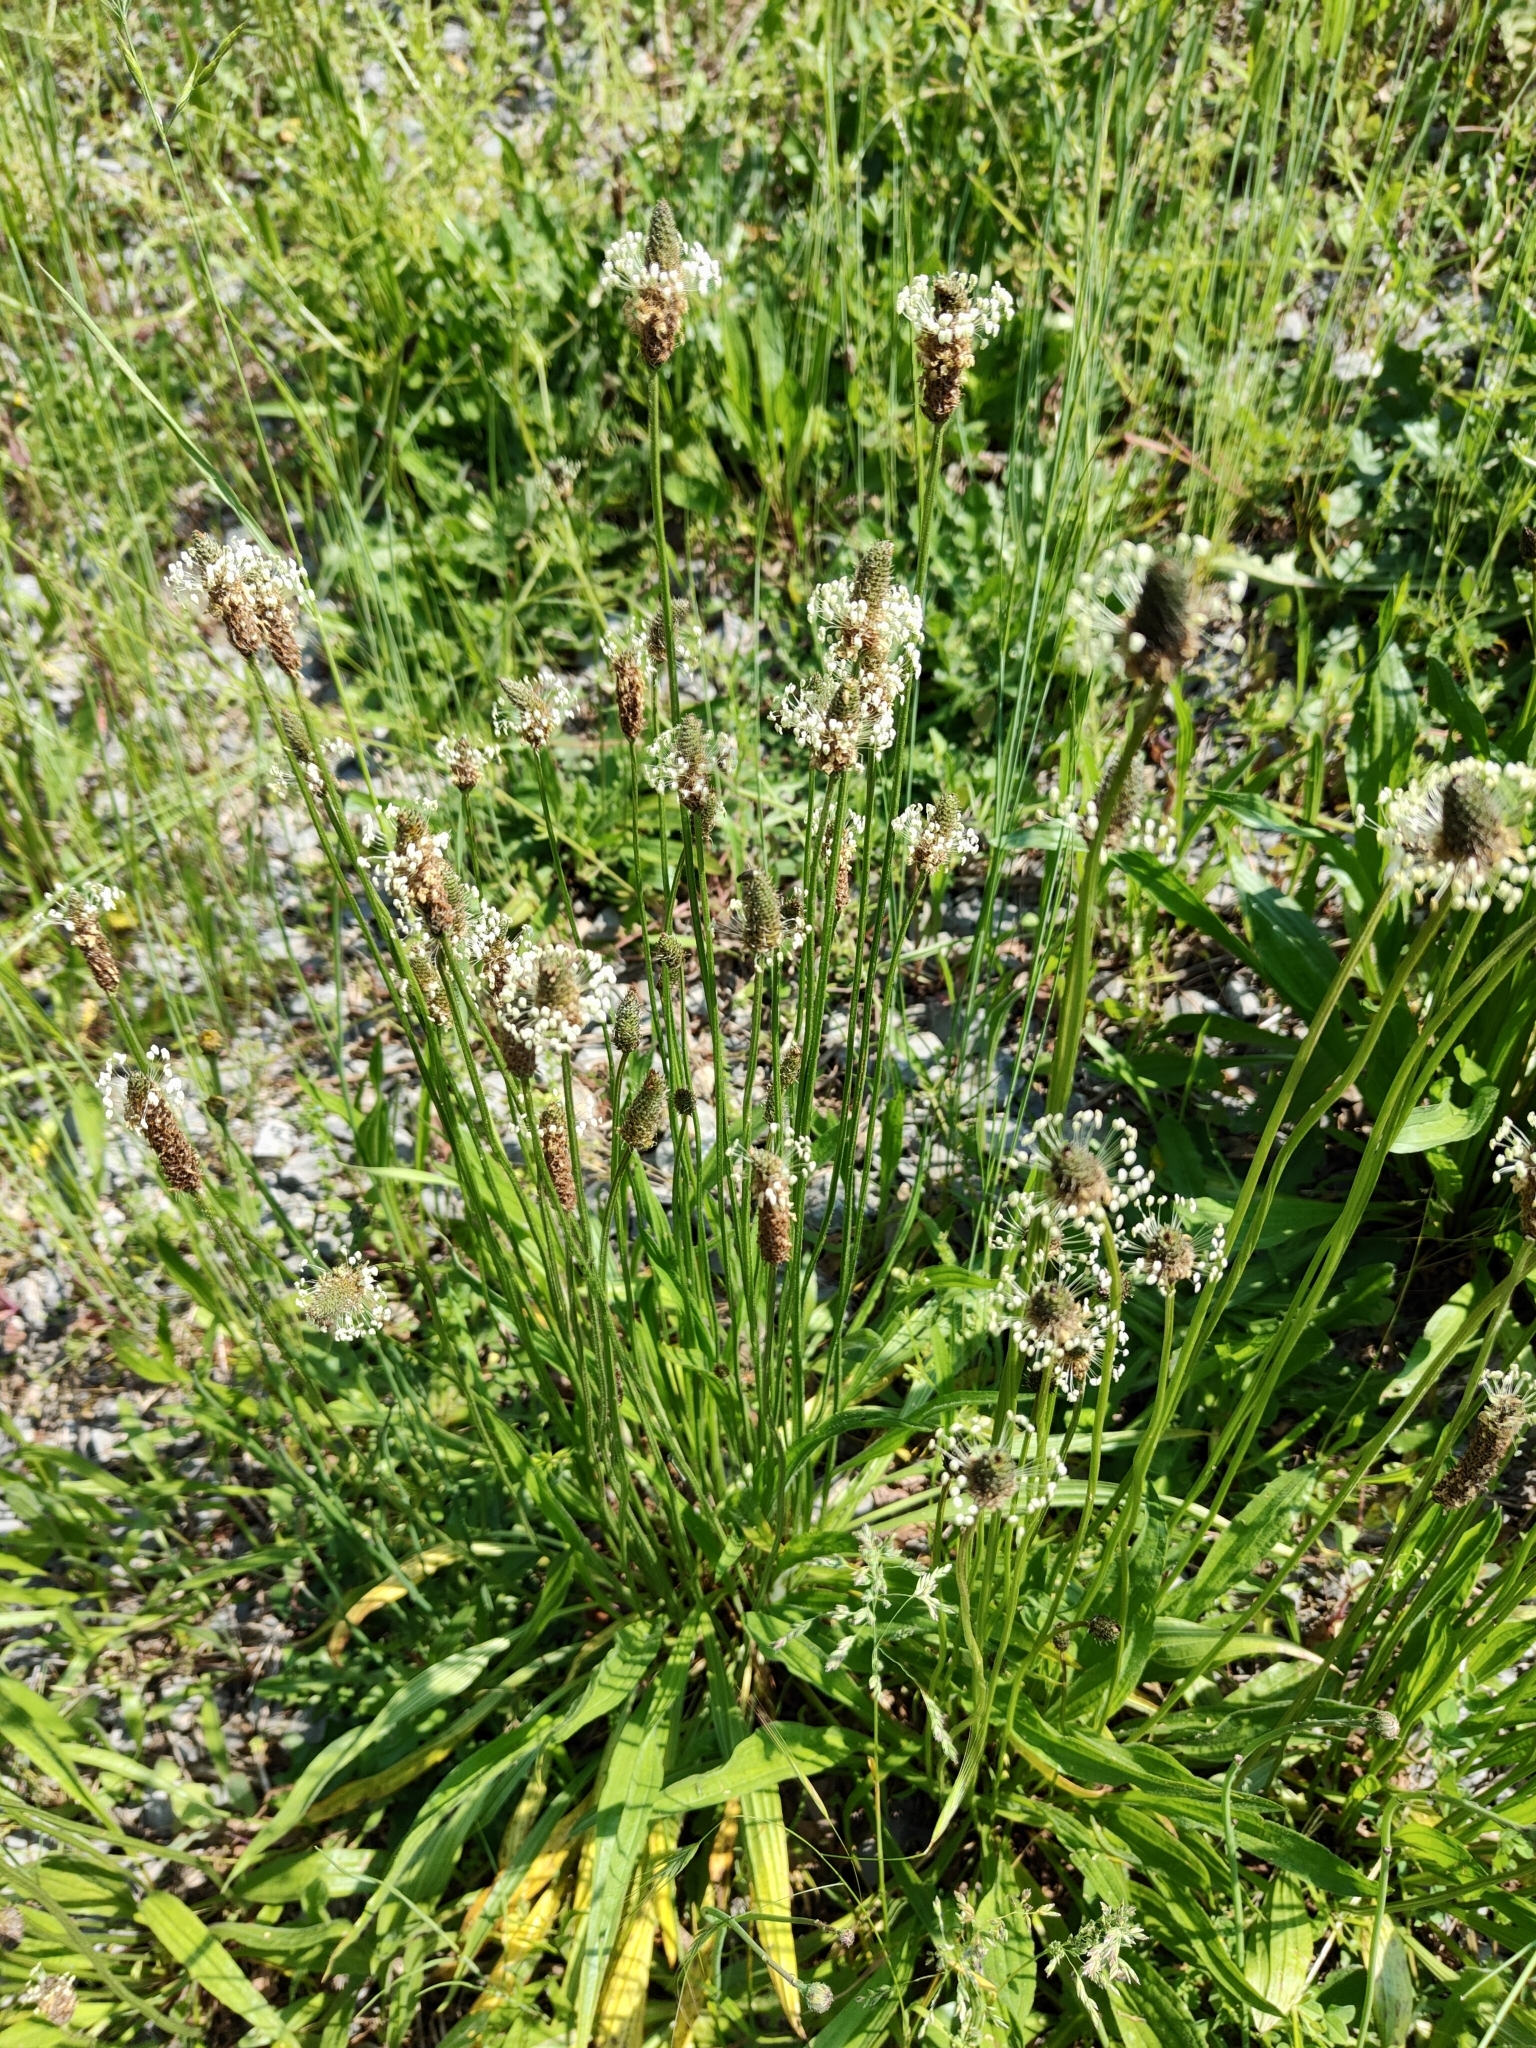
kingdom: Plantae
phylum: Tracheophyta
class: Magnoliopsida
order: Lamiales
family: Plantaginaceae
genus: Plantago
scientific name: Plantago lanceolata
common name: Ribwort plantain
